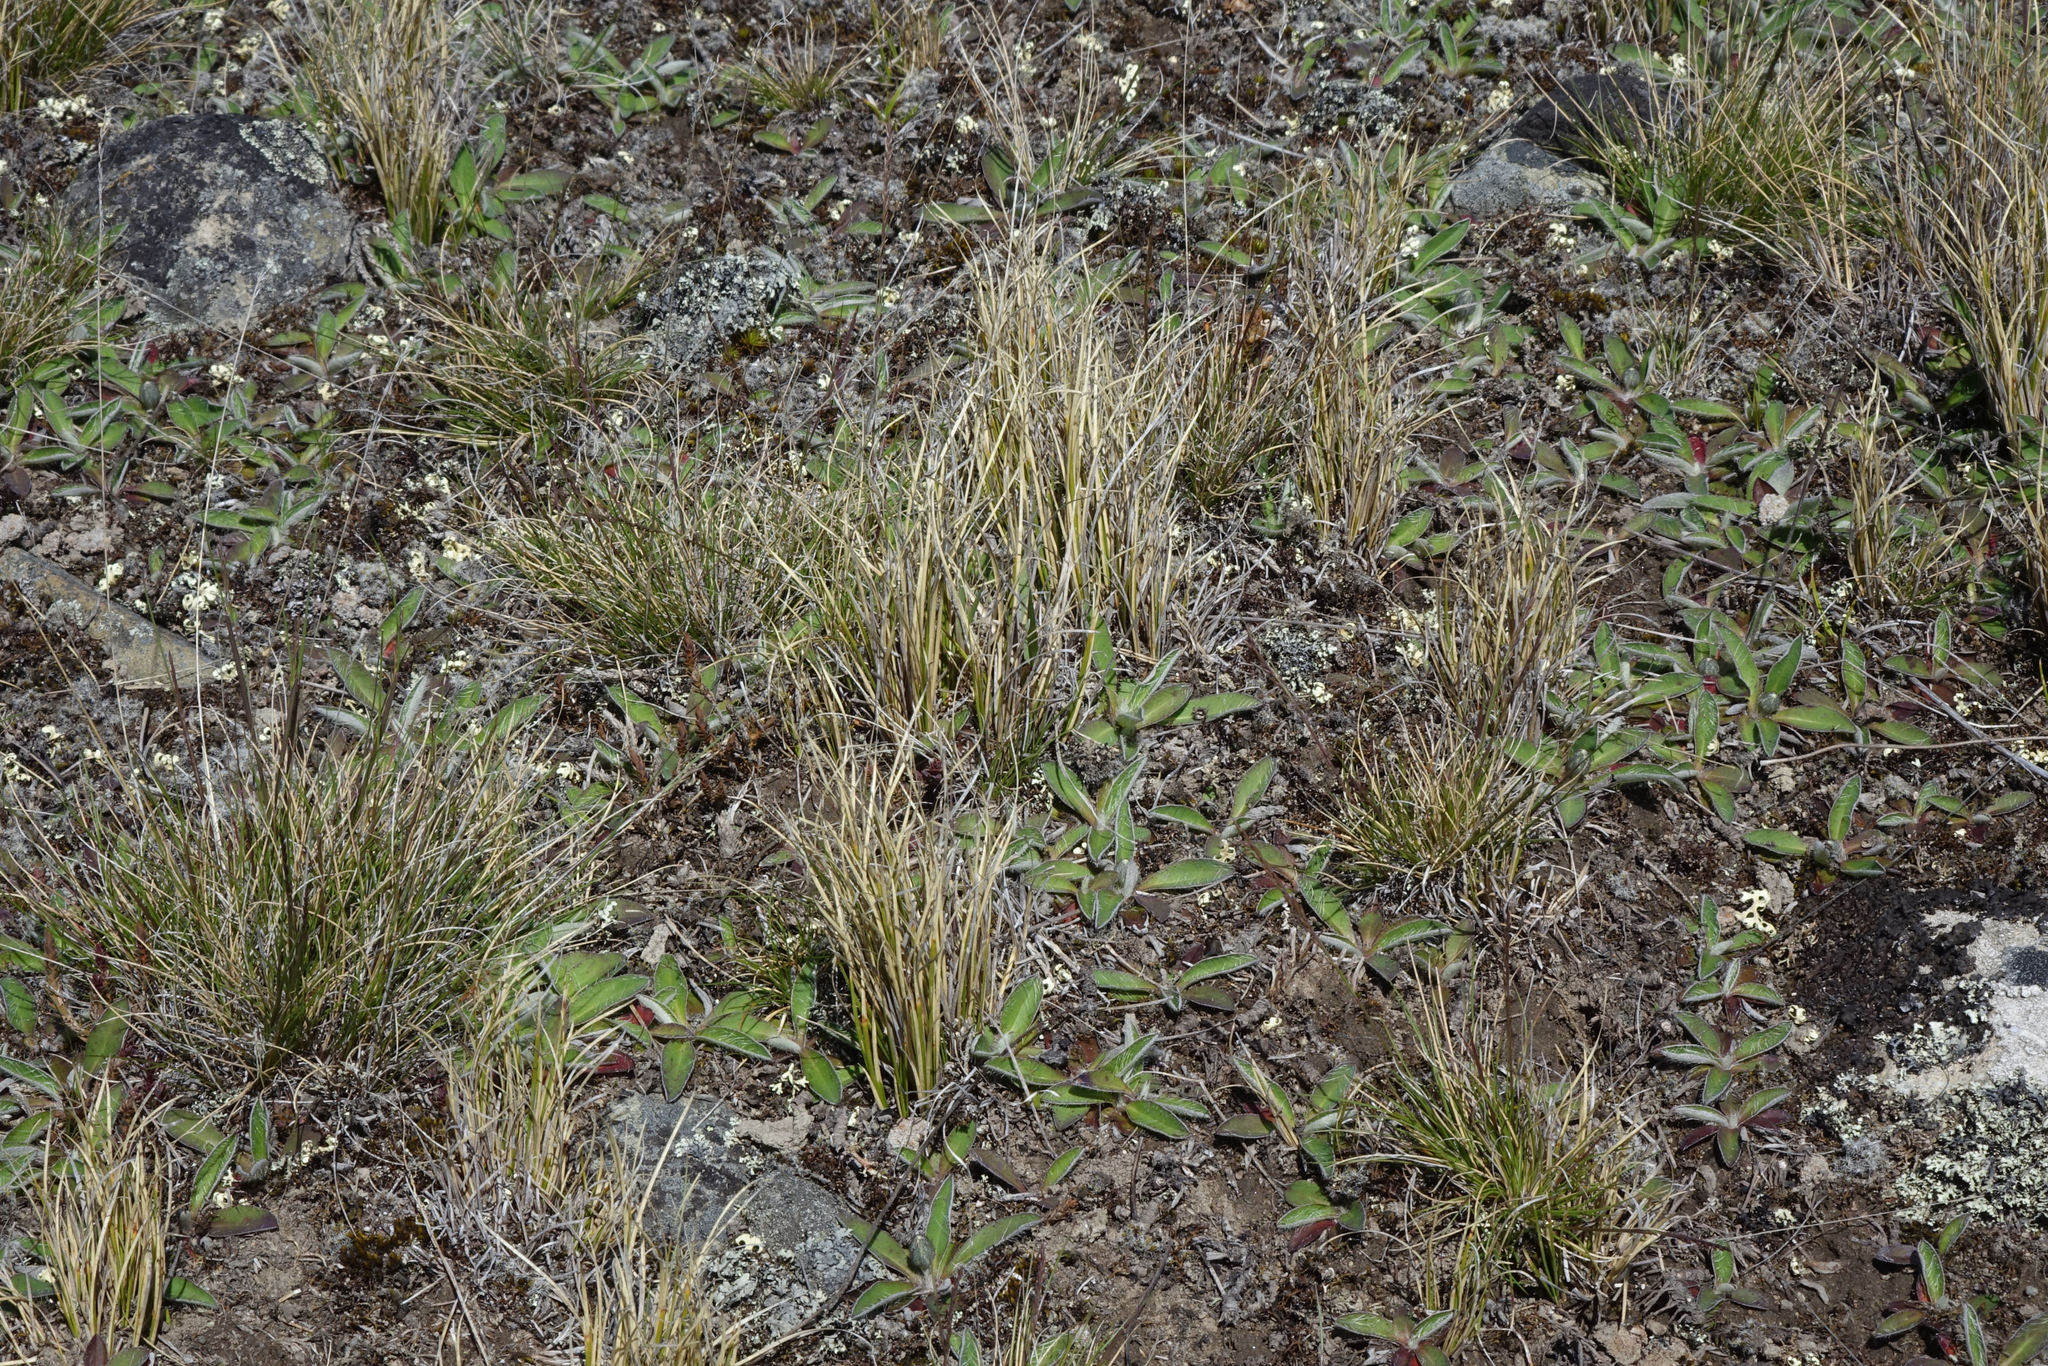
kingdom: Plantae
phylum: Tracheophyta
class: Liliopsida
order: Poales
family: Cyperaceae
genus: Carex
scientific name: Carex muelleri
